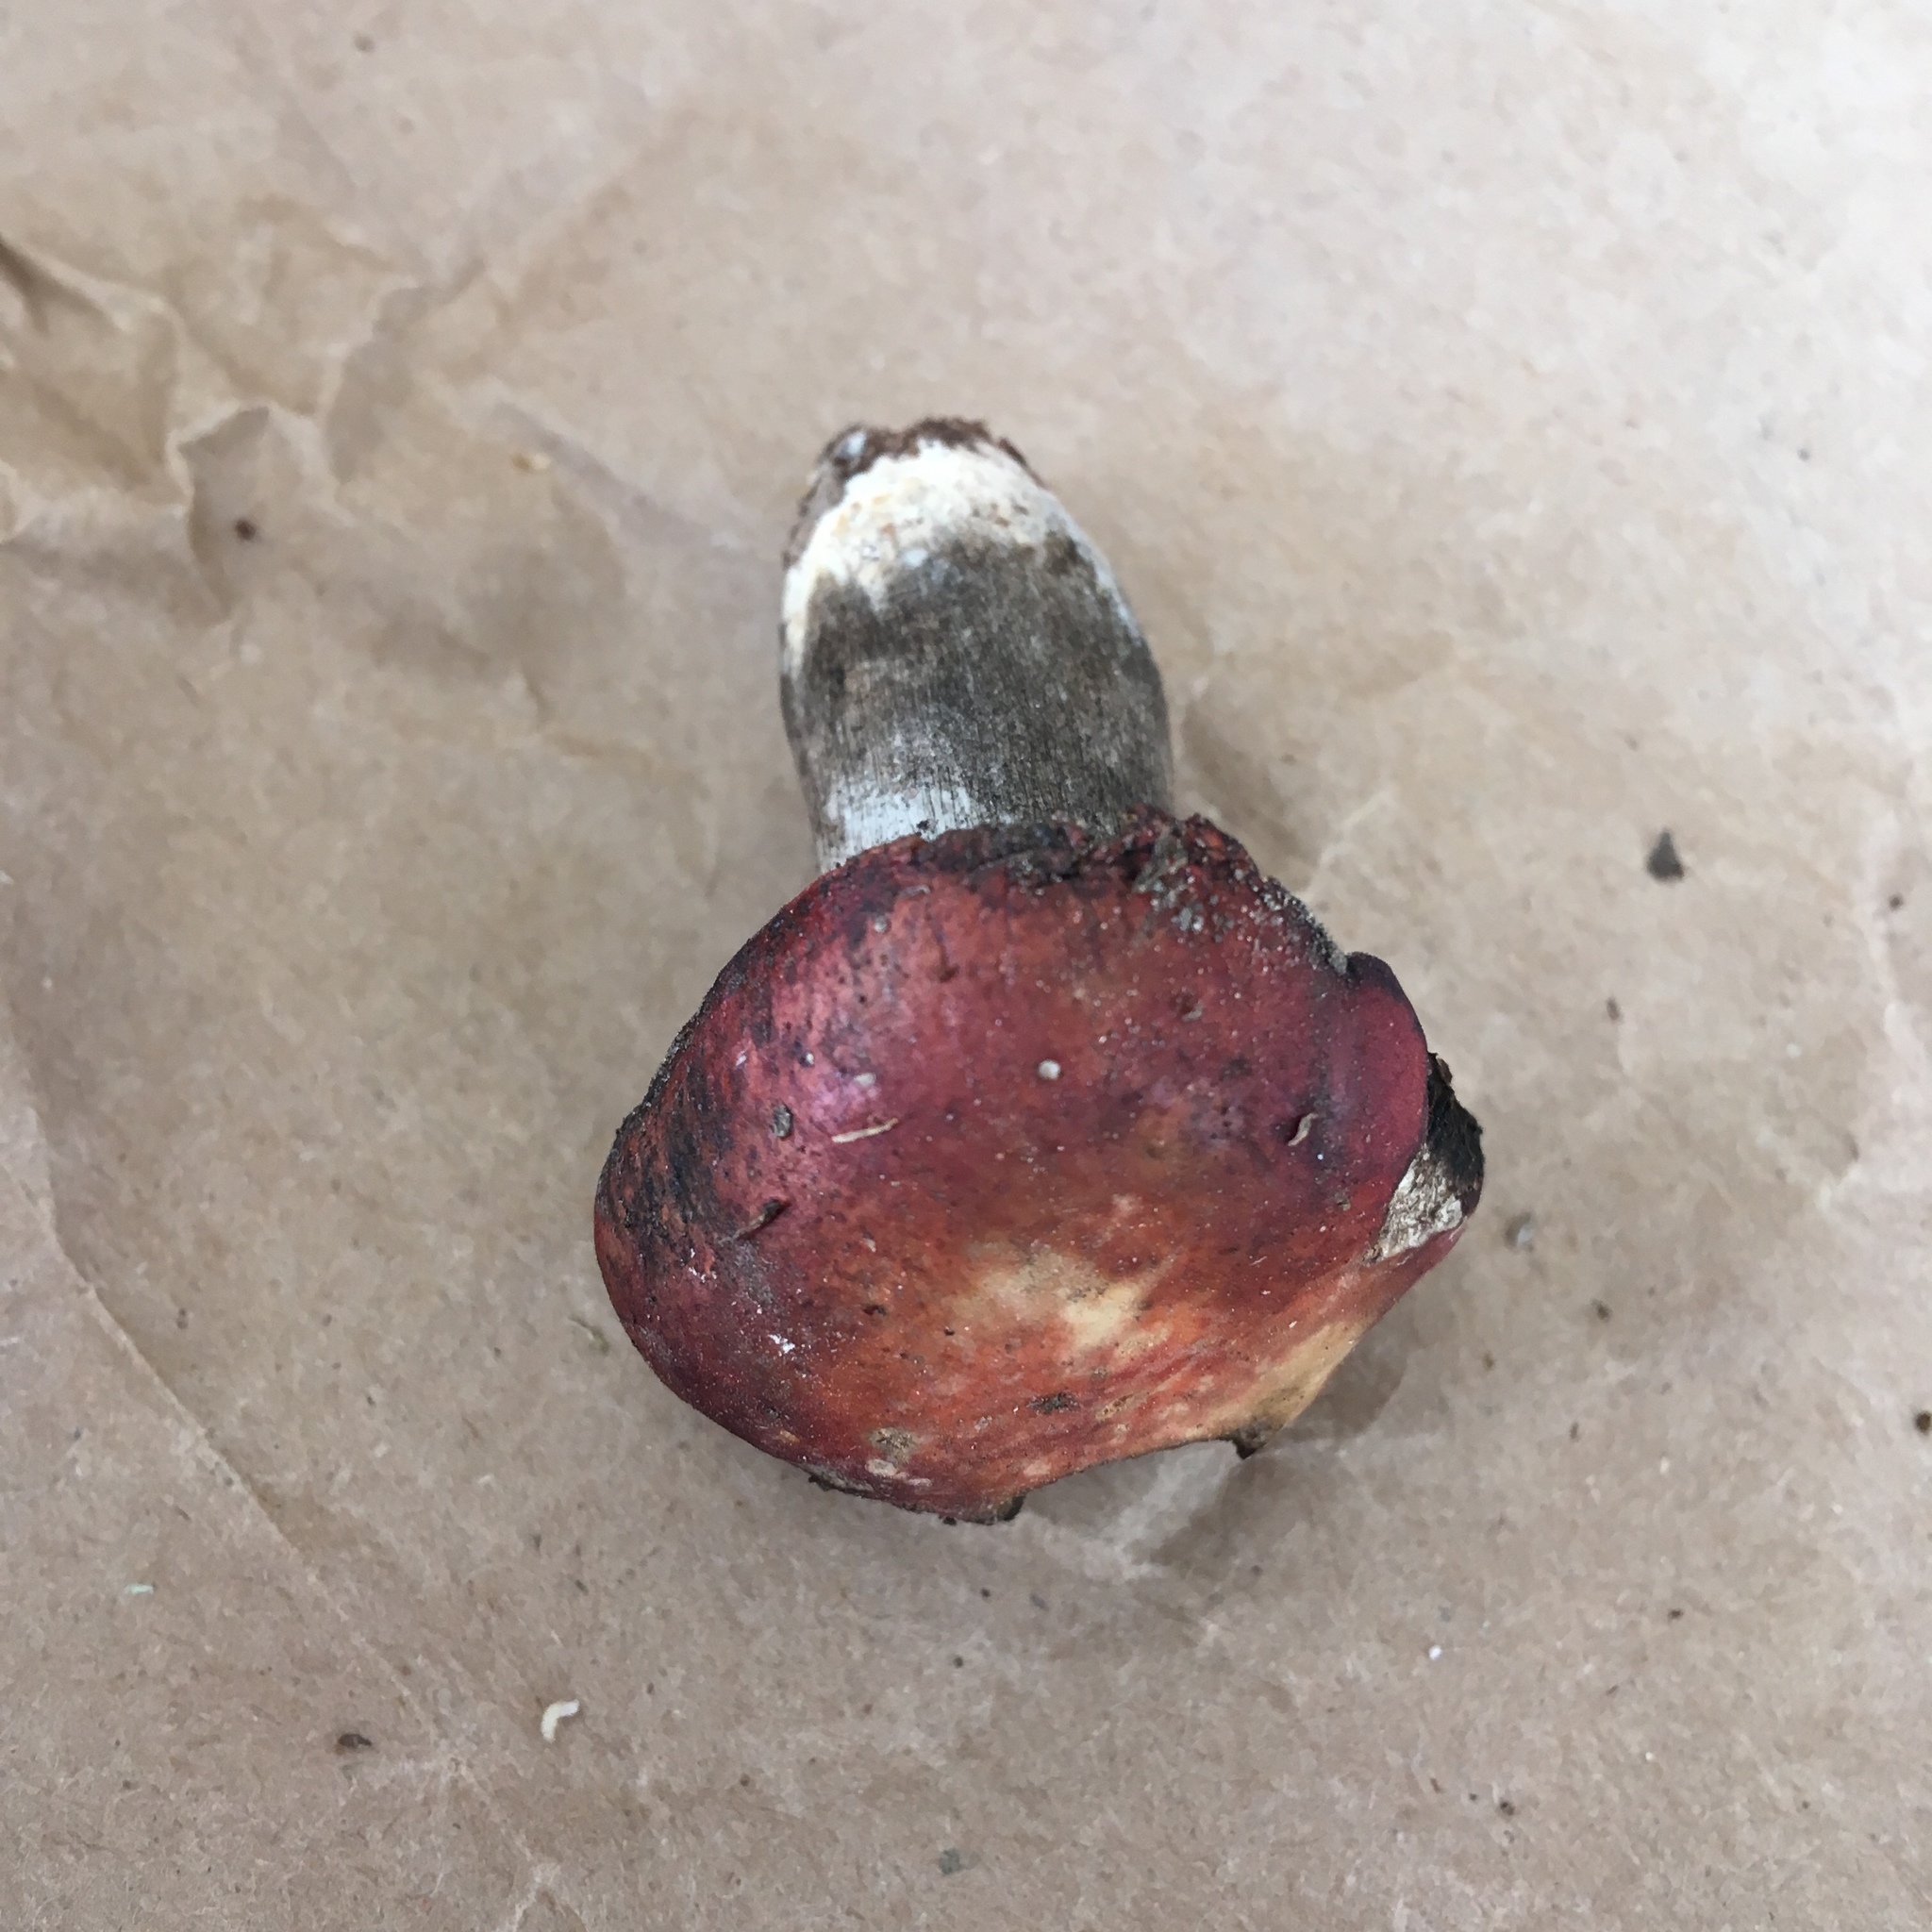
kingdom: Fungi
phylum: Basidiomycota
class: Agaricomycetes
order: Russulales
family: Russulaceae
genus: Russula
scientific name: Russula rubescens
